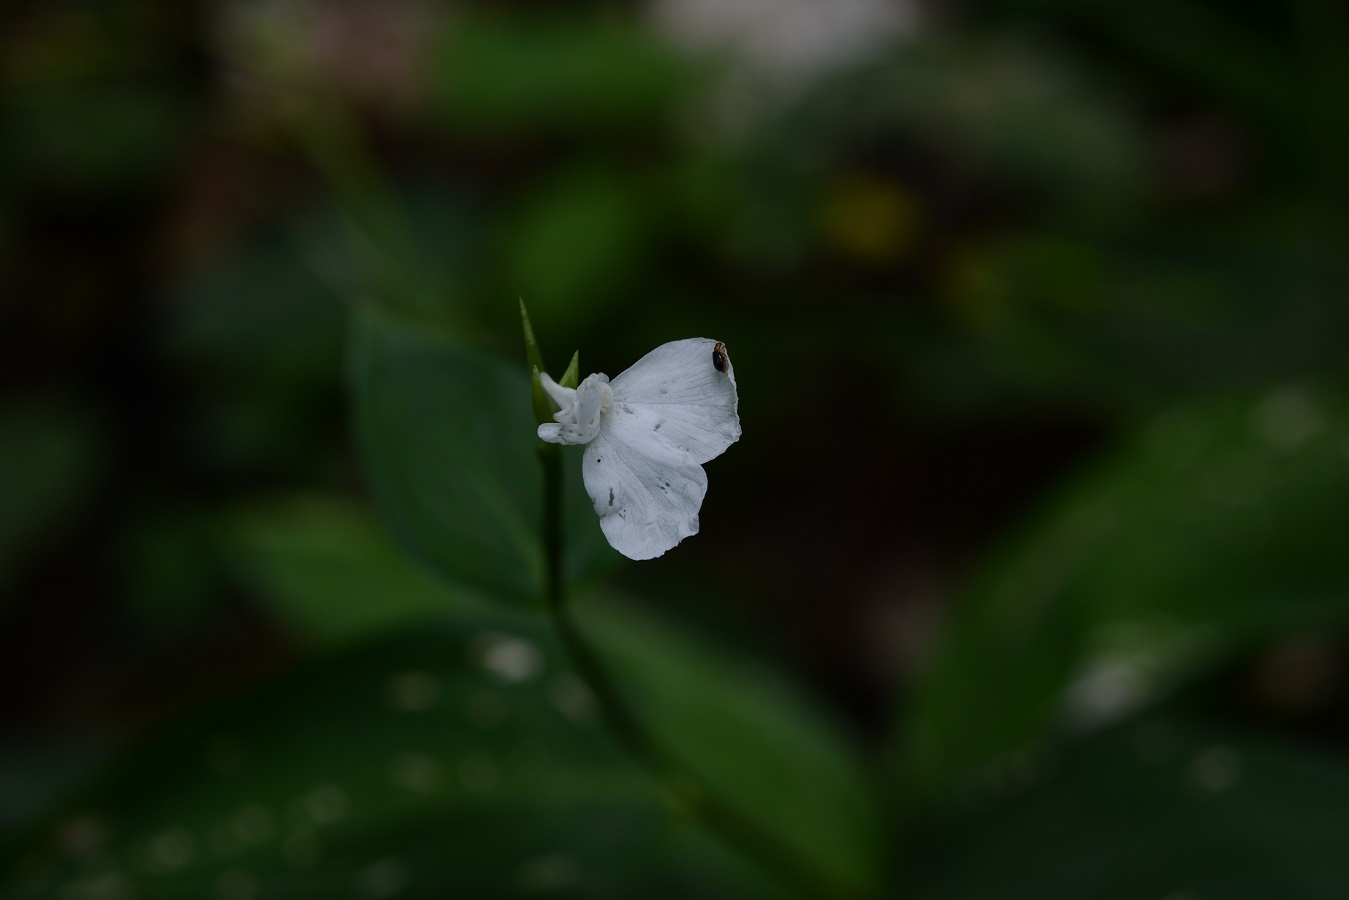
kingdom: Plantae
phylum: Tracheophyta
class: Liliopsida
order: Zingiberales
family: Marantaceae
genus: Maranta
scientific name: Maranta arundinacea
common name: Arrowroot
